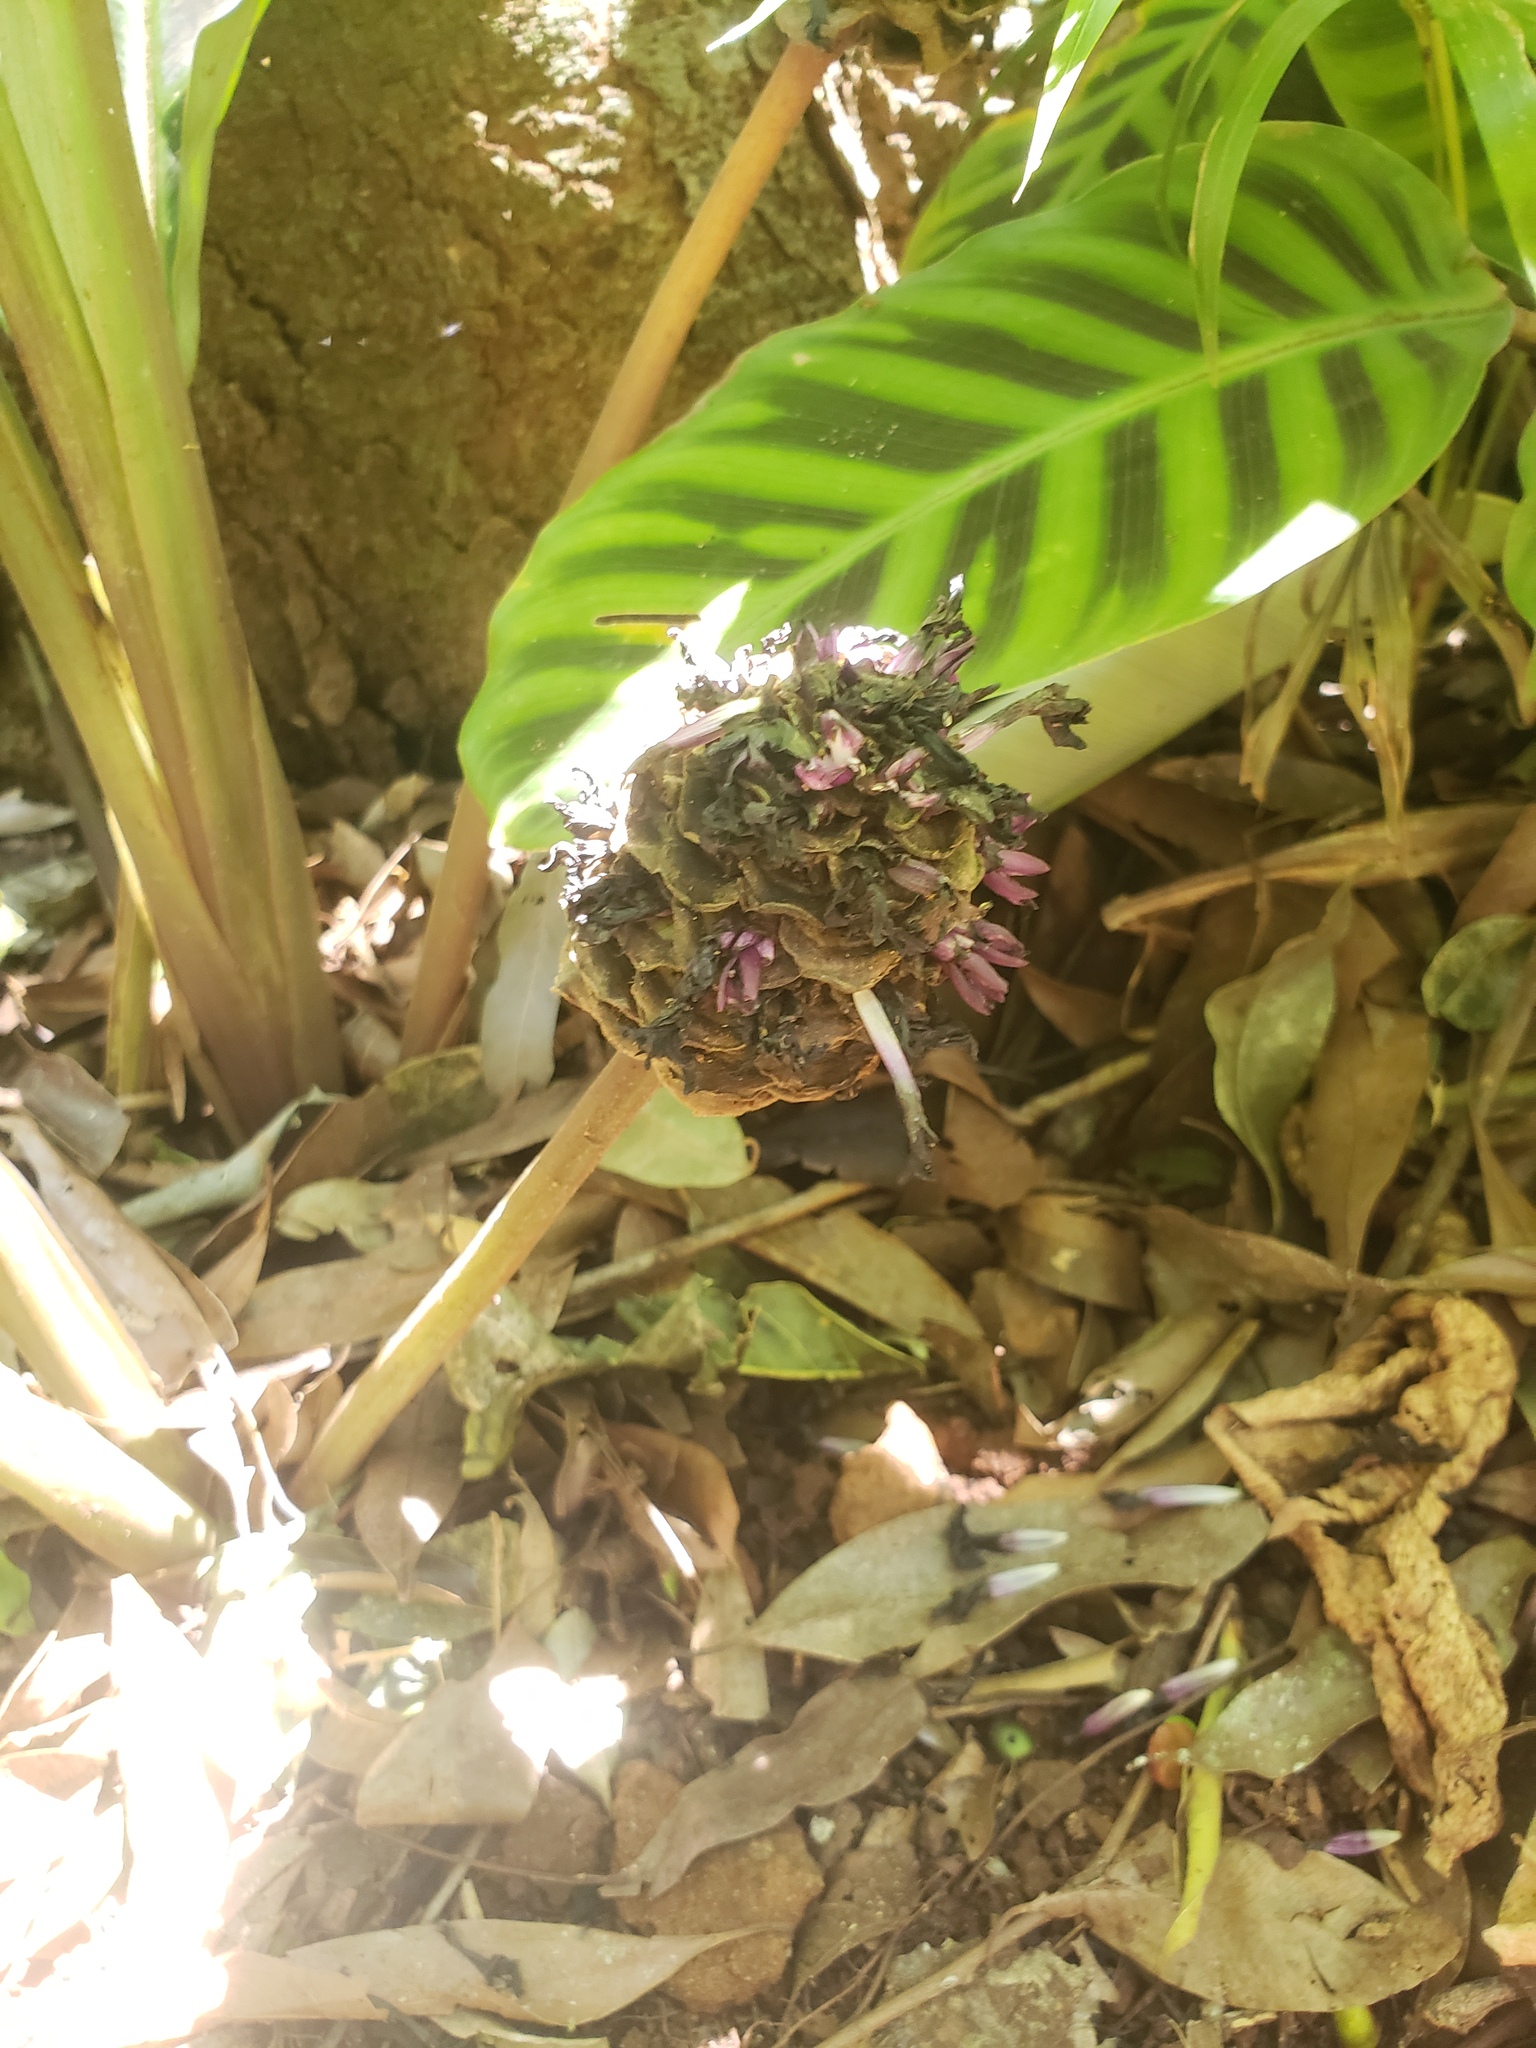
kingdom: Plantae
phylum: Tracheophyta
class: Liliopsida
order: Zingiberales
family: Marantaceae
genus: Goeppertia
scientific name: Goeppertia zebrina
